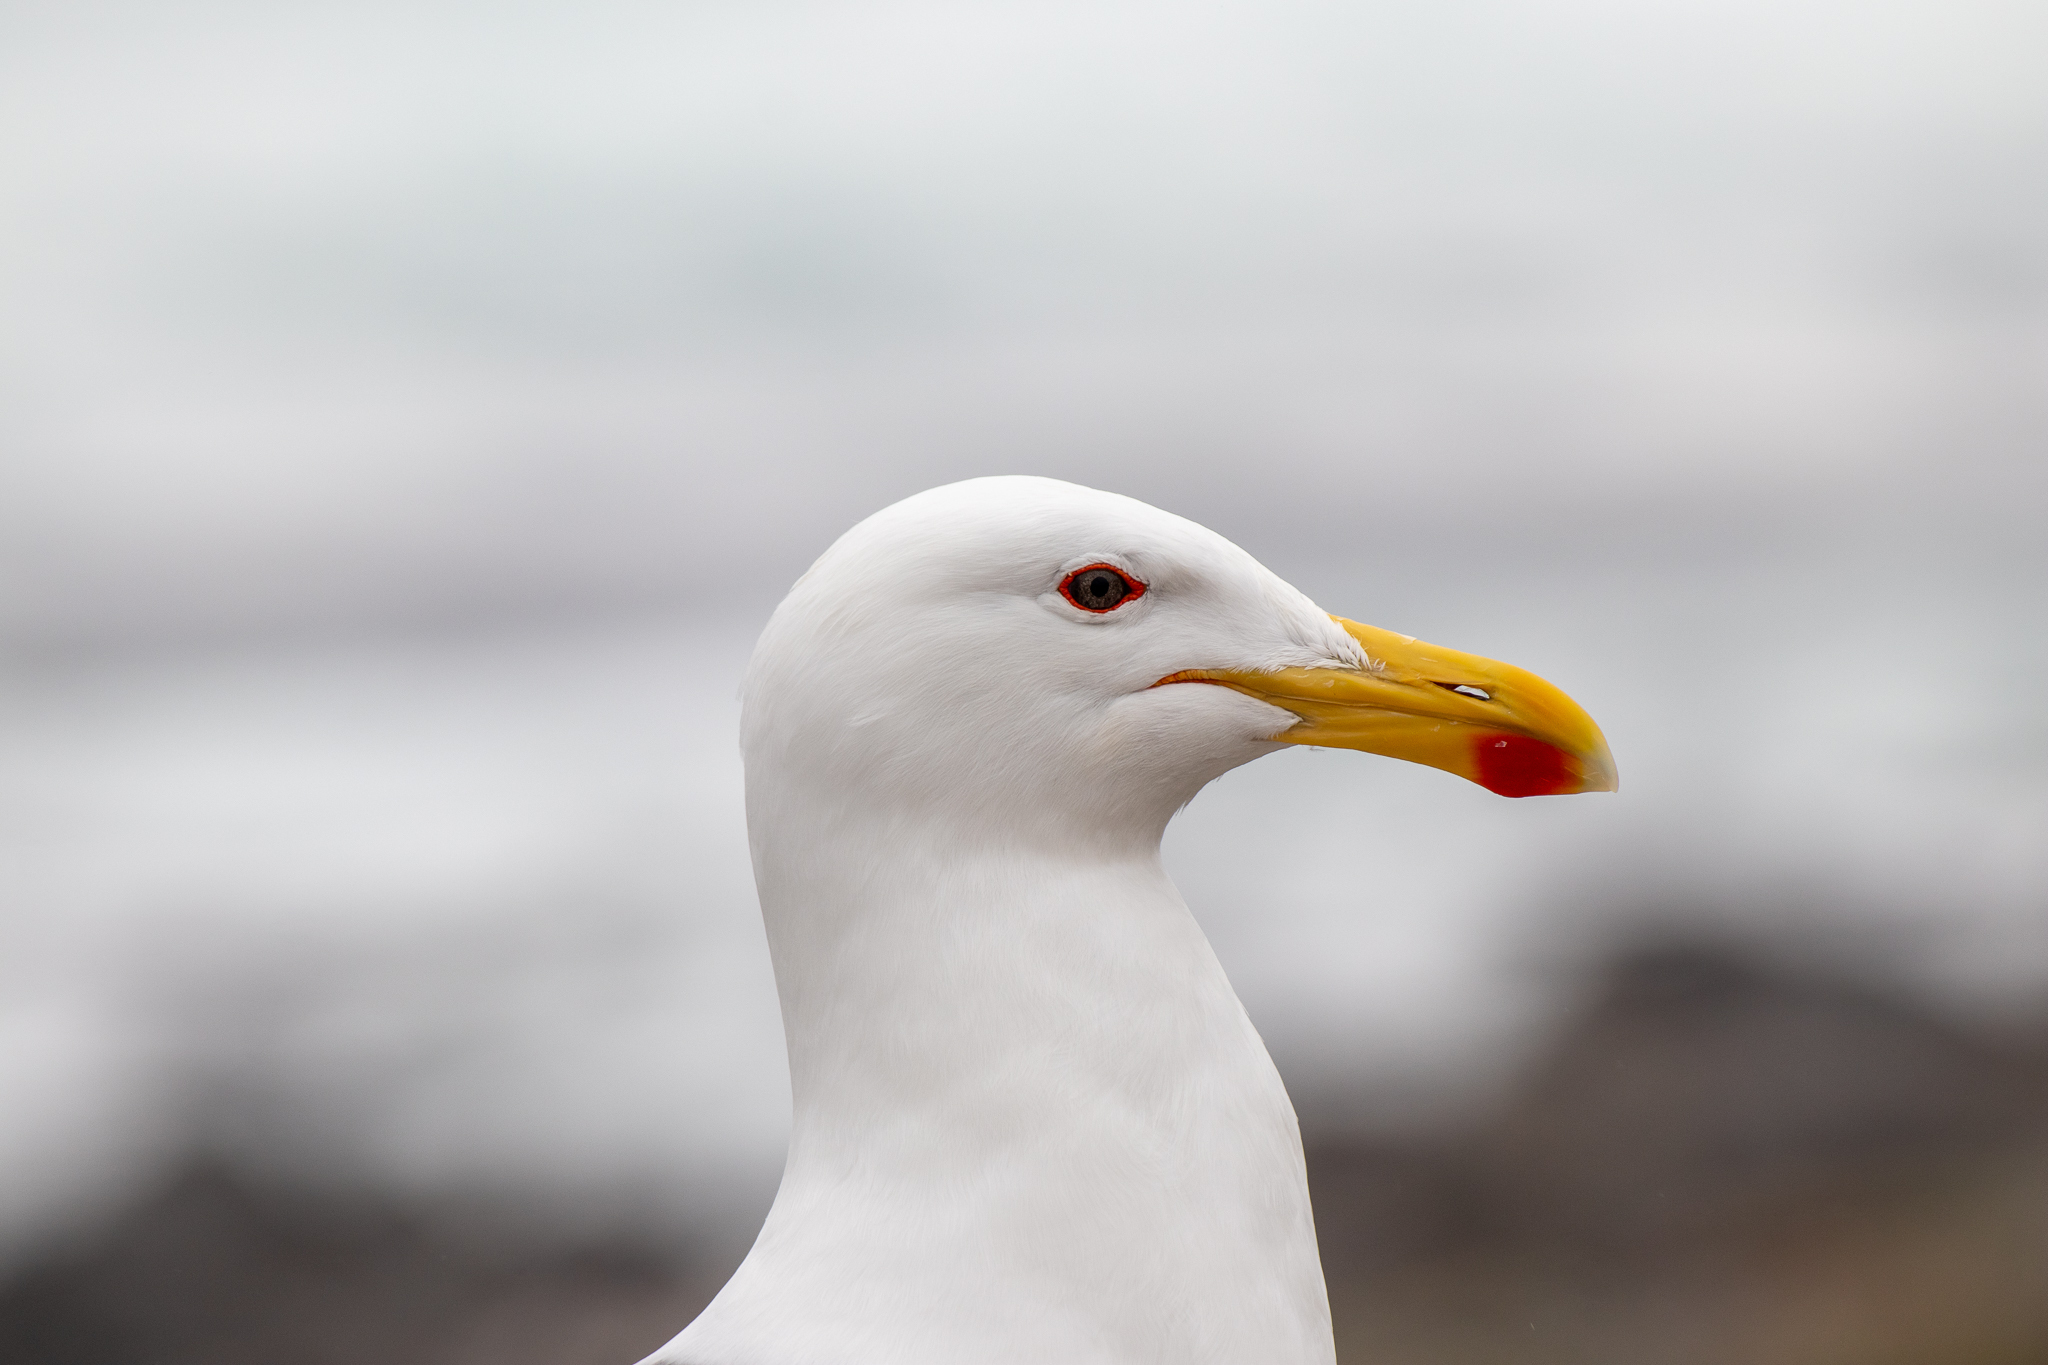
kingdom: Animalia
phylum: Chordata
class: Aves
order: Charadriiformes
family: Laridae
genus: Larus
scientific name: Larus dominicanus
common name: Kelp gull
